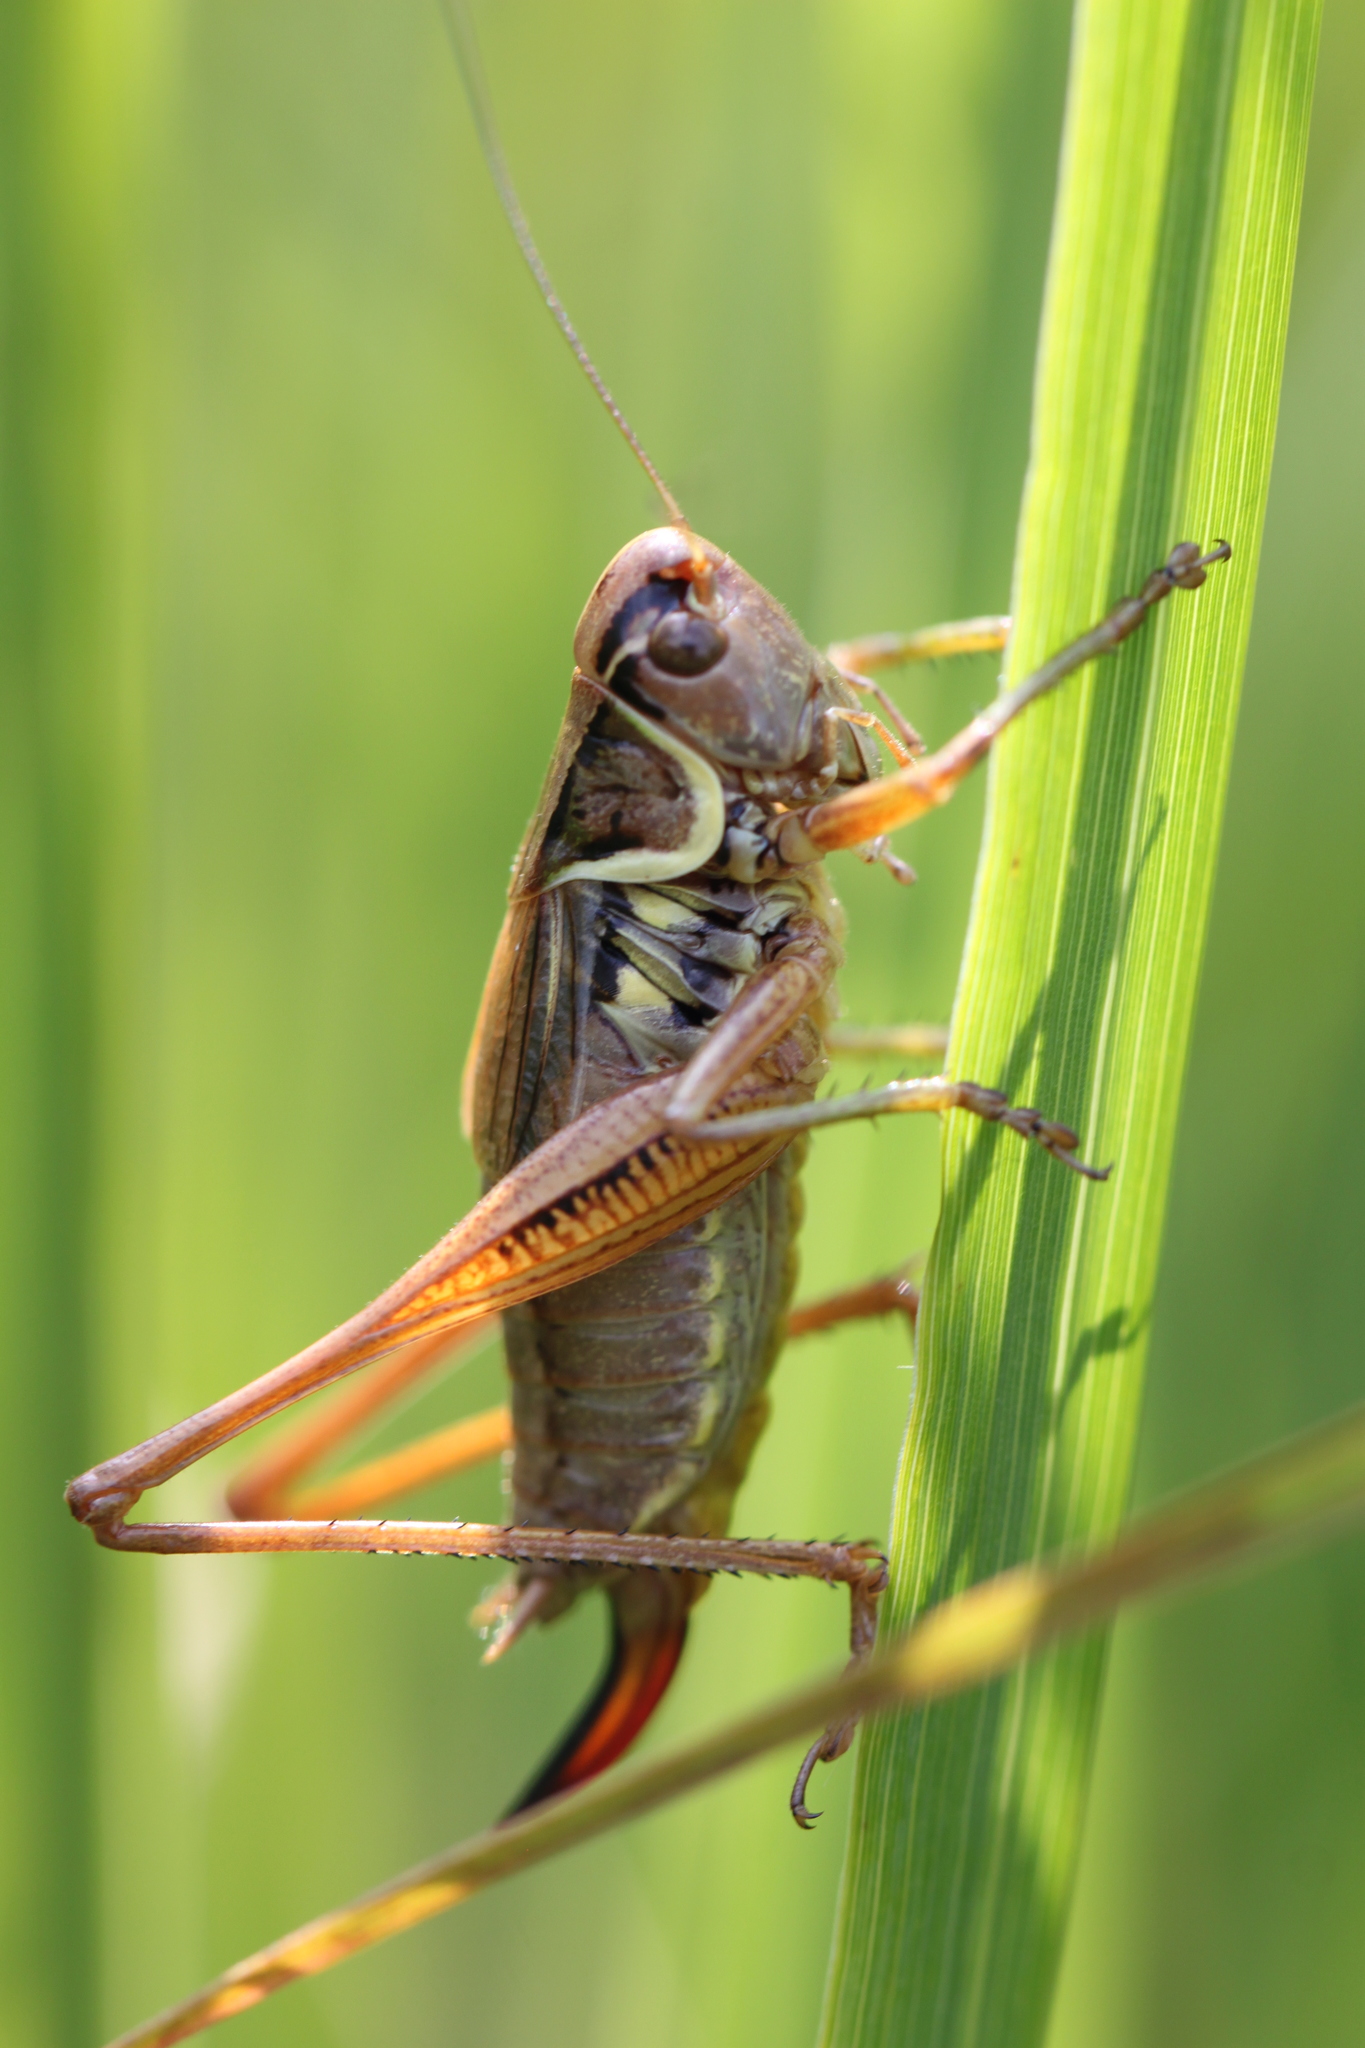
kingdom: Animalia
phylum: Arthropoda
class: Insecta
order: Orthoptera
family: Tettigoniidae
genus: Roeseliana
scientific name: Roeseliana roeselii
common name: Roesel's bush cricket
